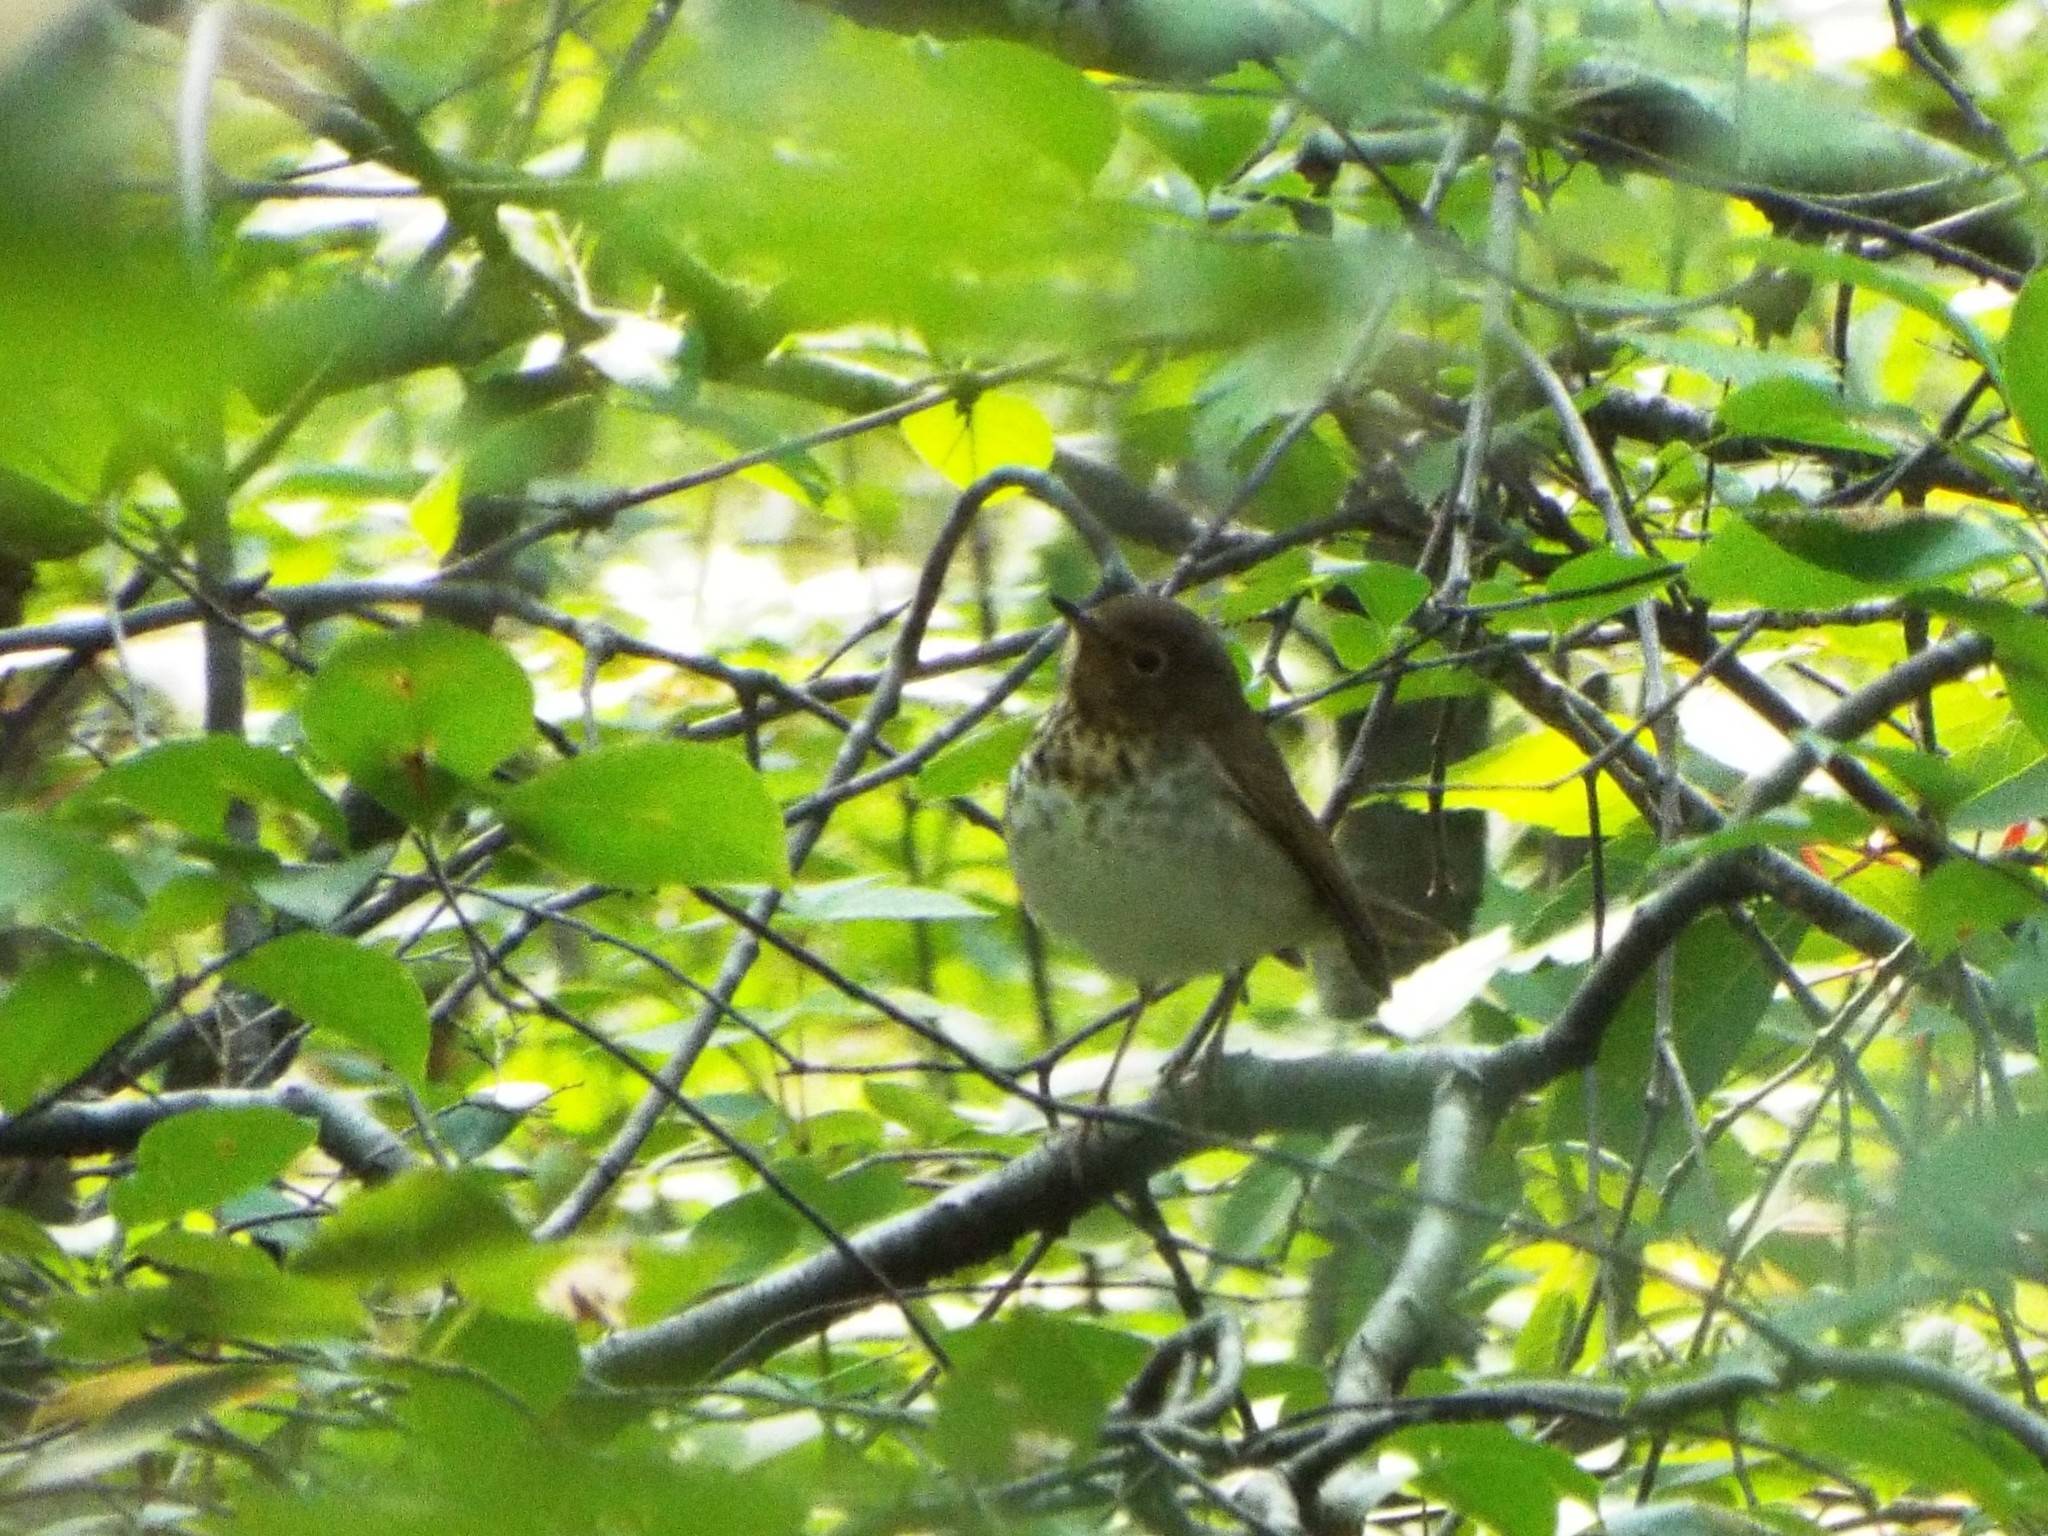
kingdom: Animalia
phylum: Chordata
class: Aves
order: Passeriformes
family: Turdidae
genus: Catharus
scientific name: Catharus ustulatus
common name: Swainson's thrush
